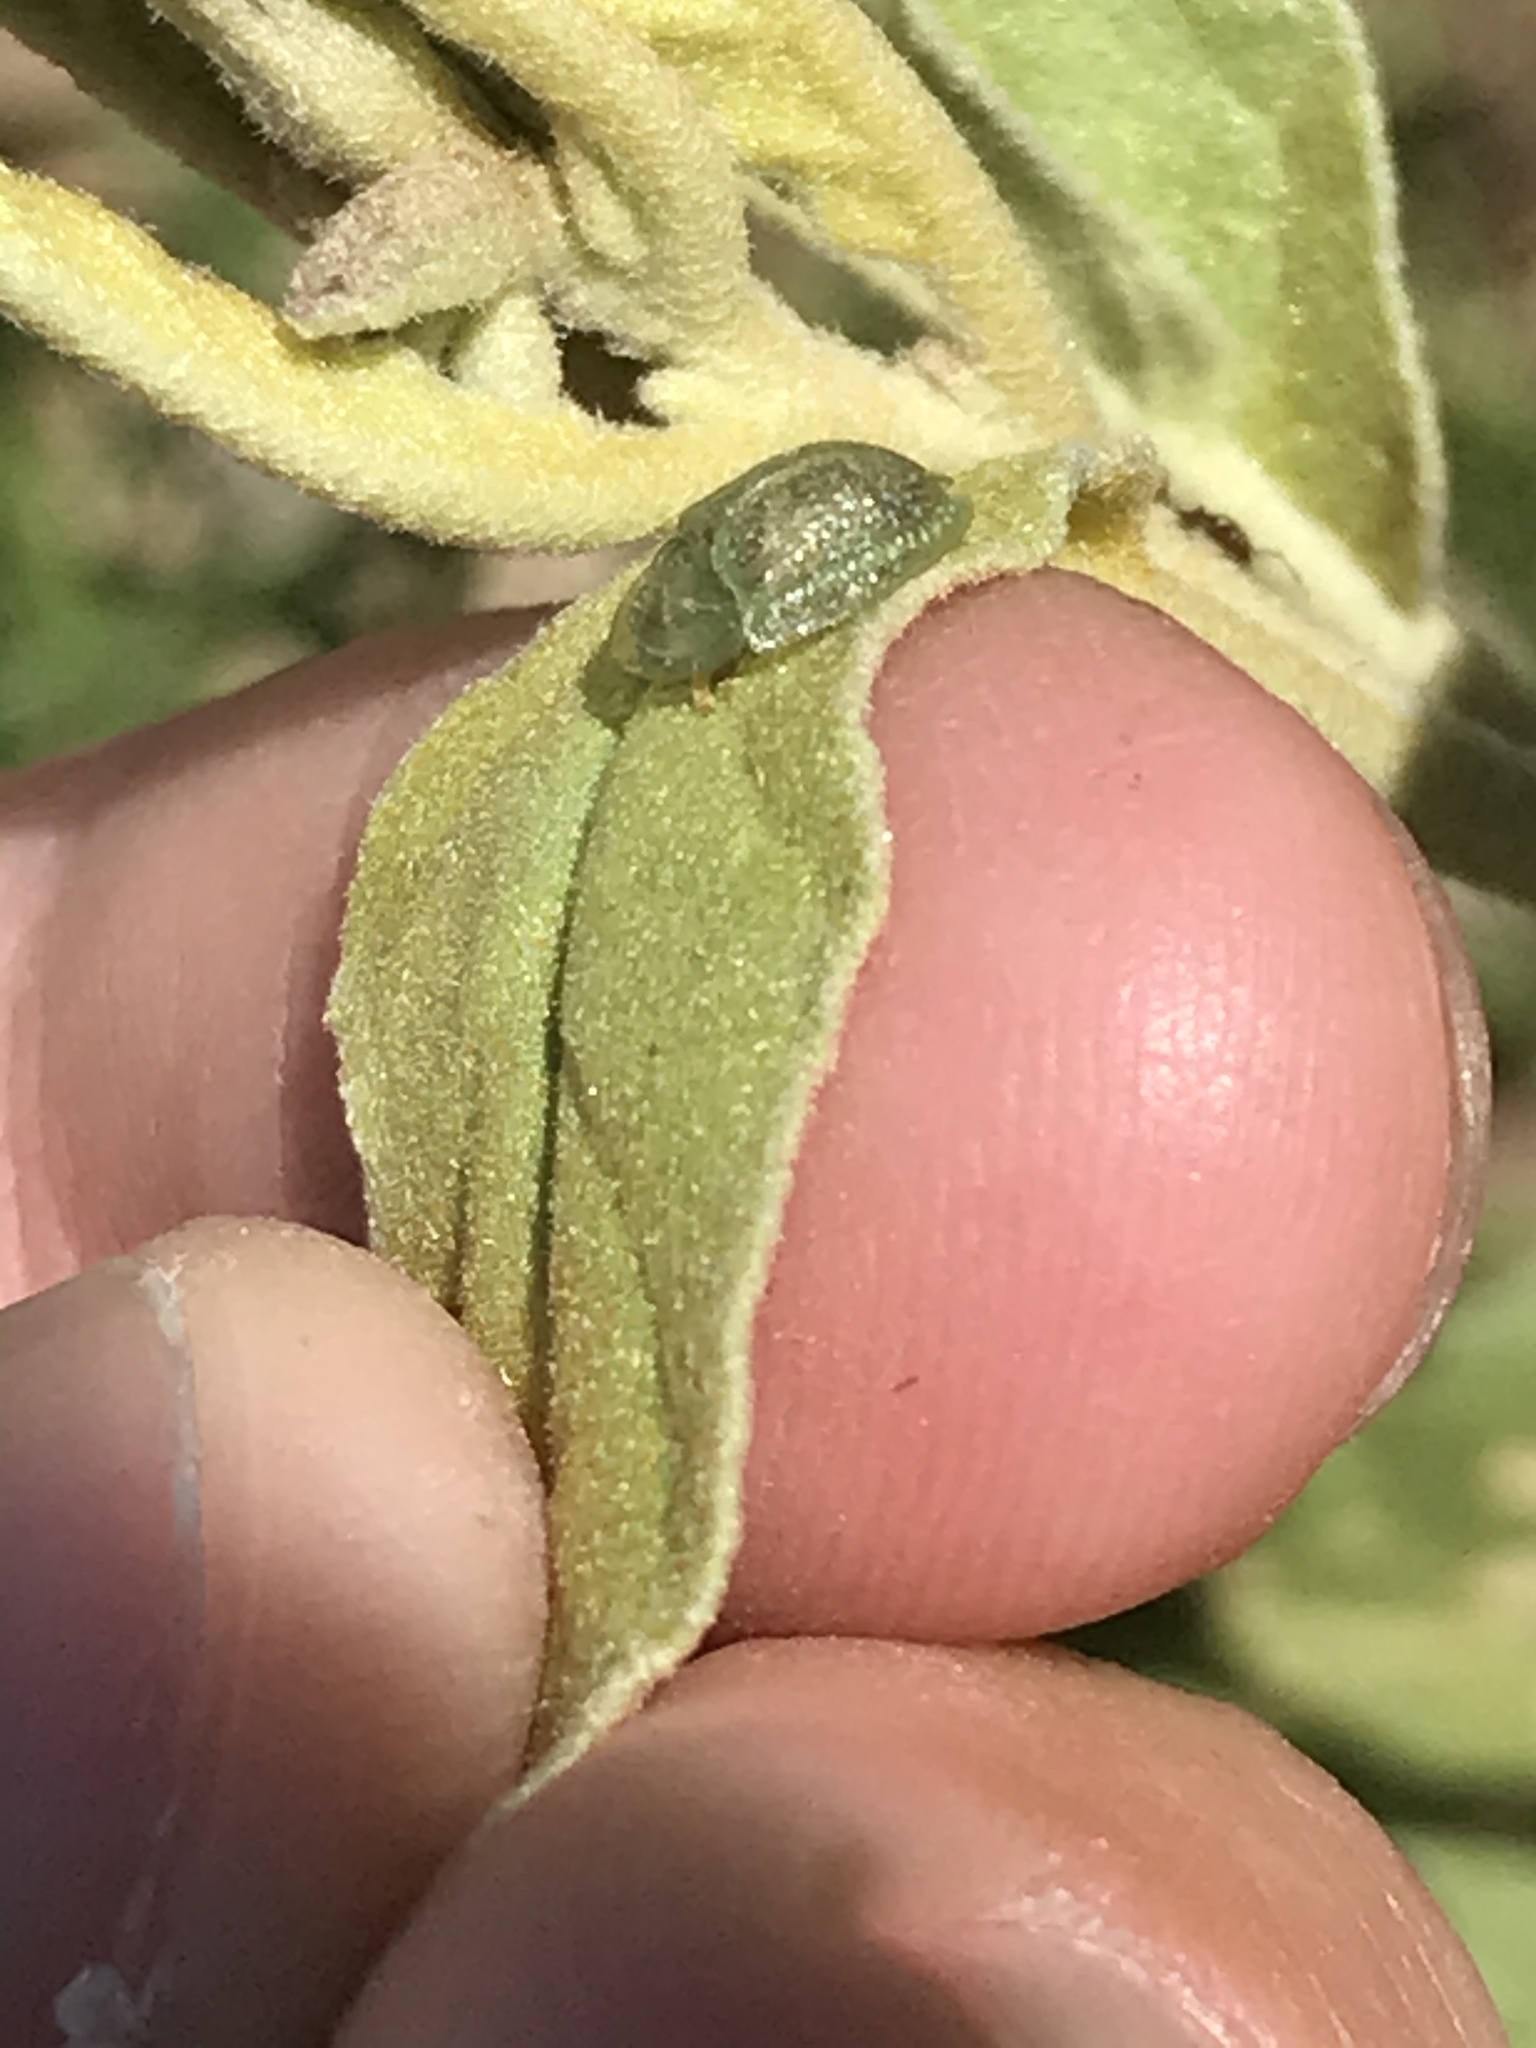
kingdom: Animalia
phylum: Arthropoda
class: Insecta
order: Coleoptera
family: Chrysomelidae
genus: Gratiana
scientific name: Gratiana pallidula
